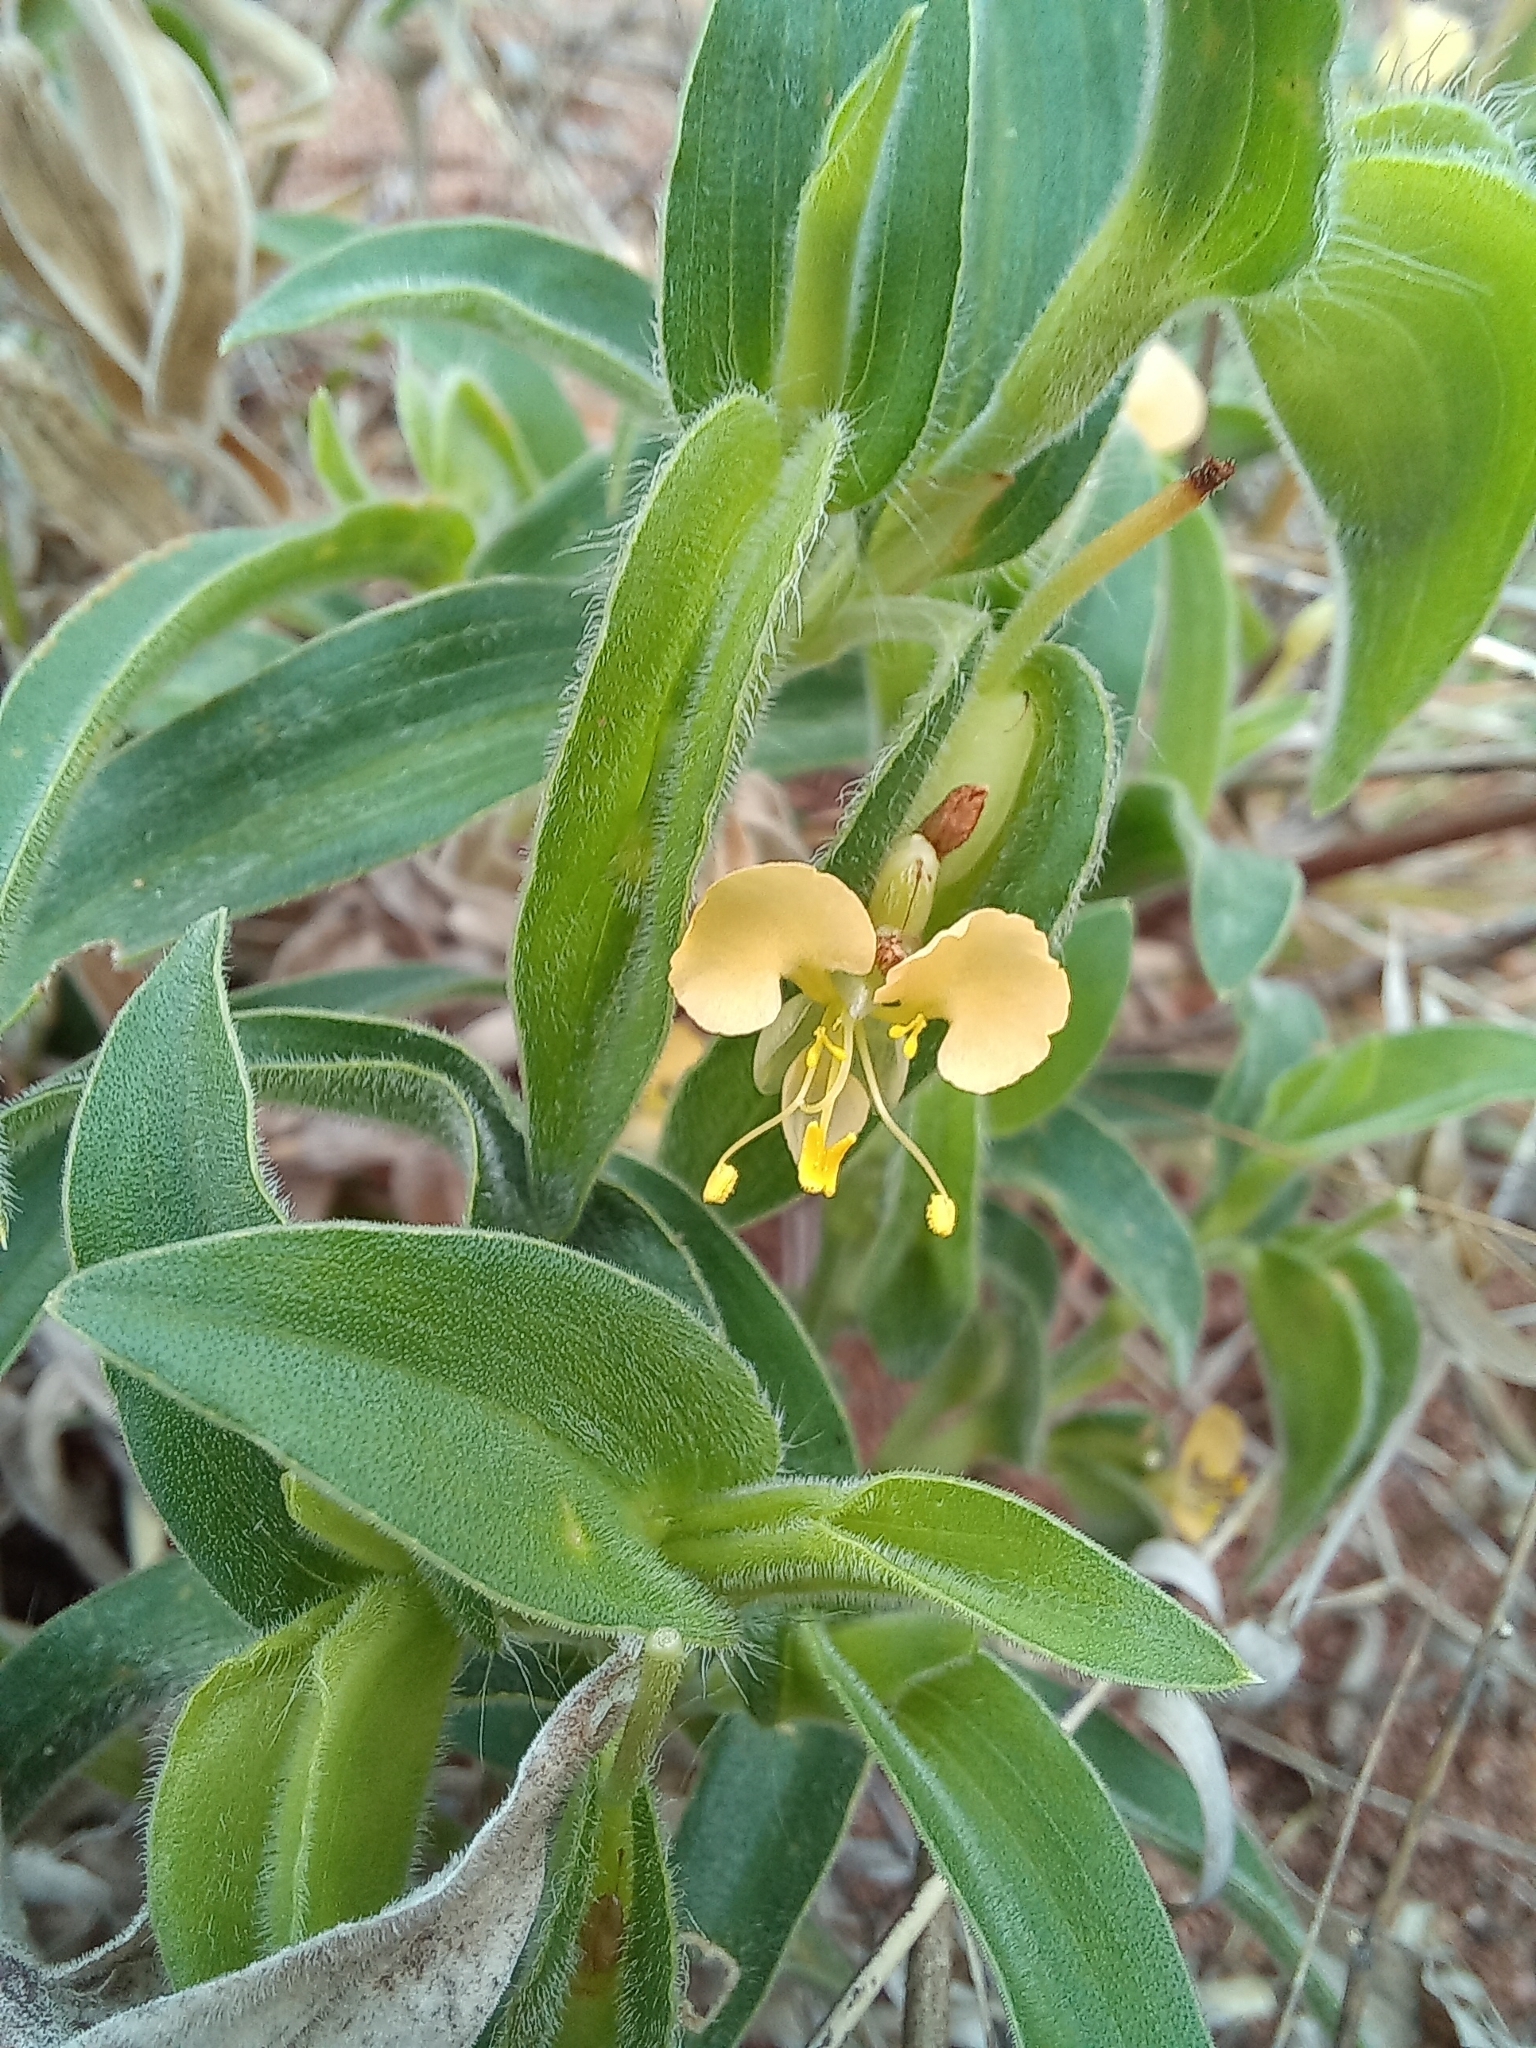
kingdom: Plantae
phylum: Tracheophyta
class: Liliopsida
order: Commelinales
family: Commelinaceae
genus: Commelina
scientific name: Commelina africana
